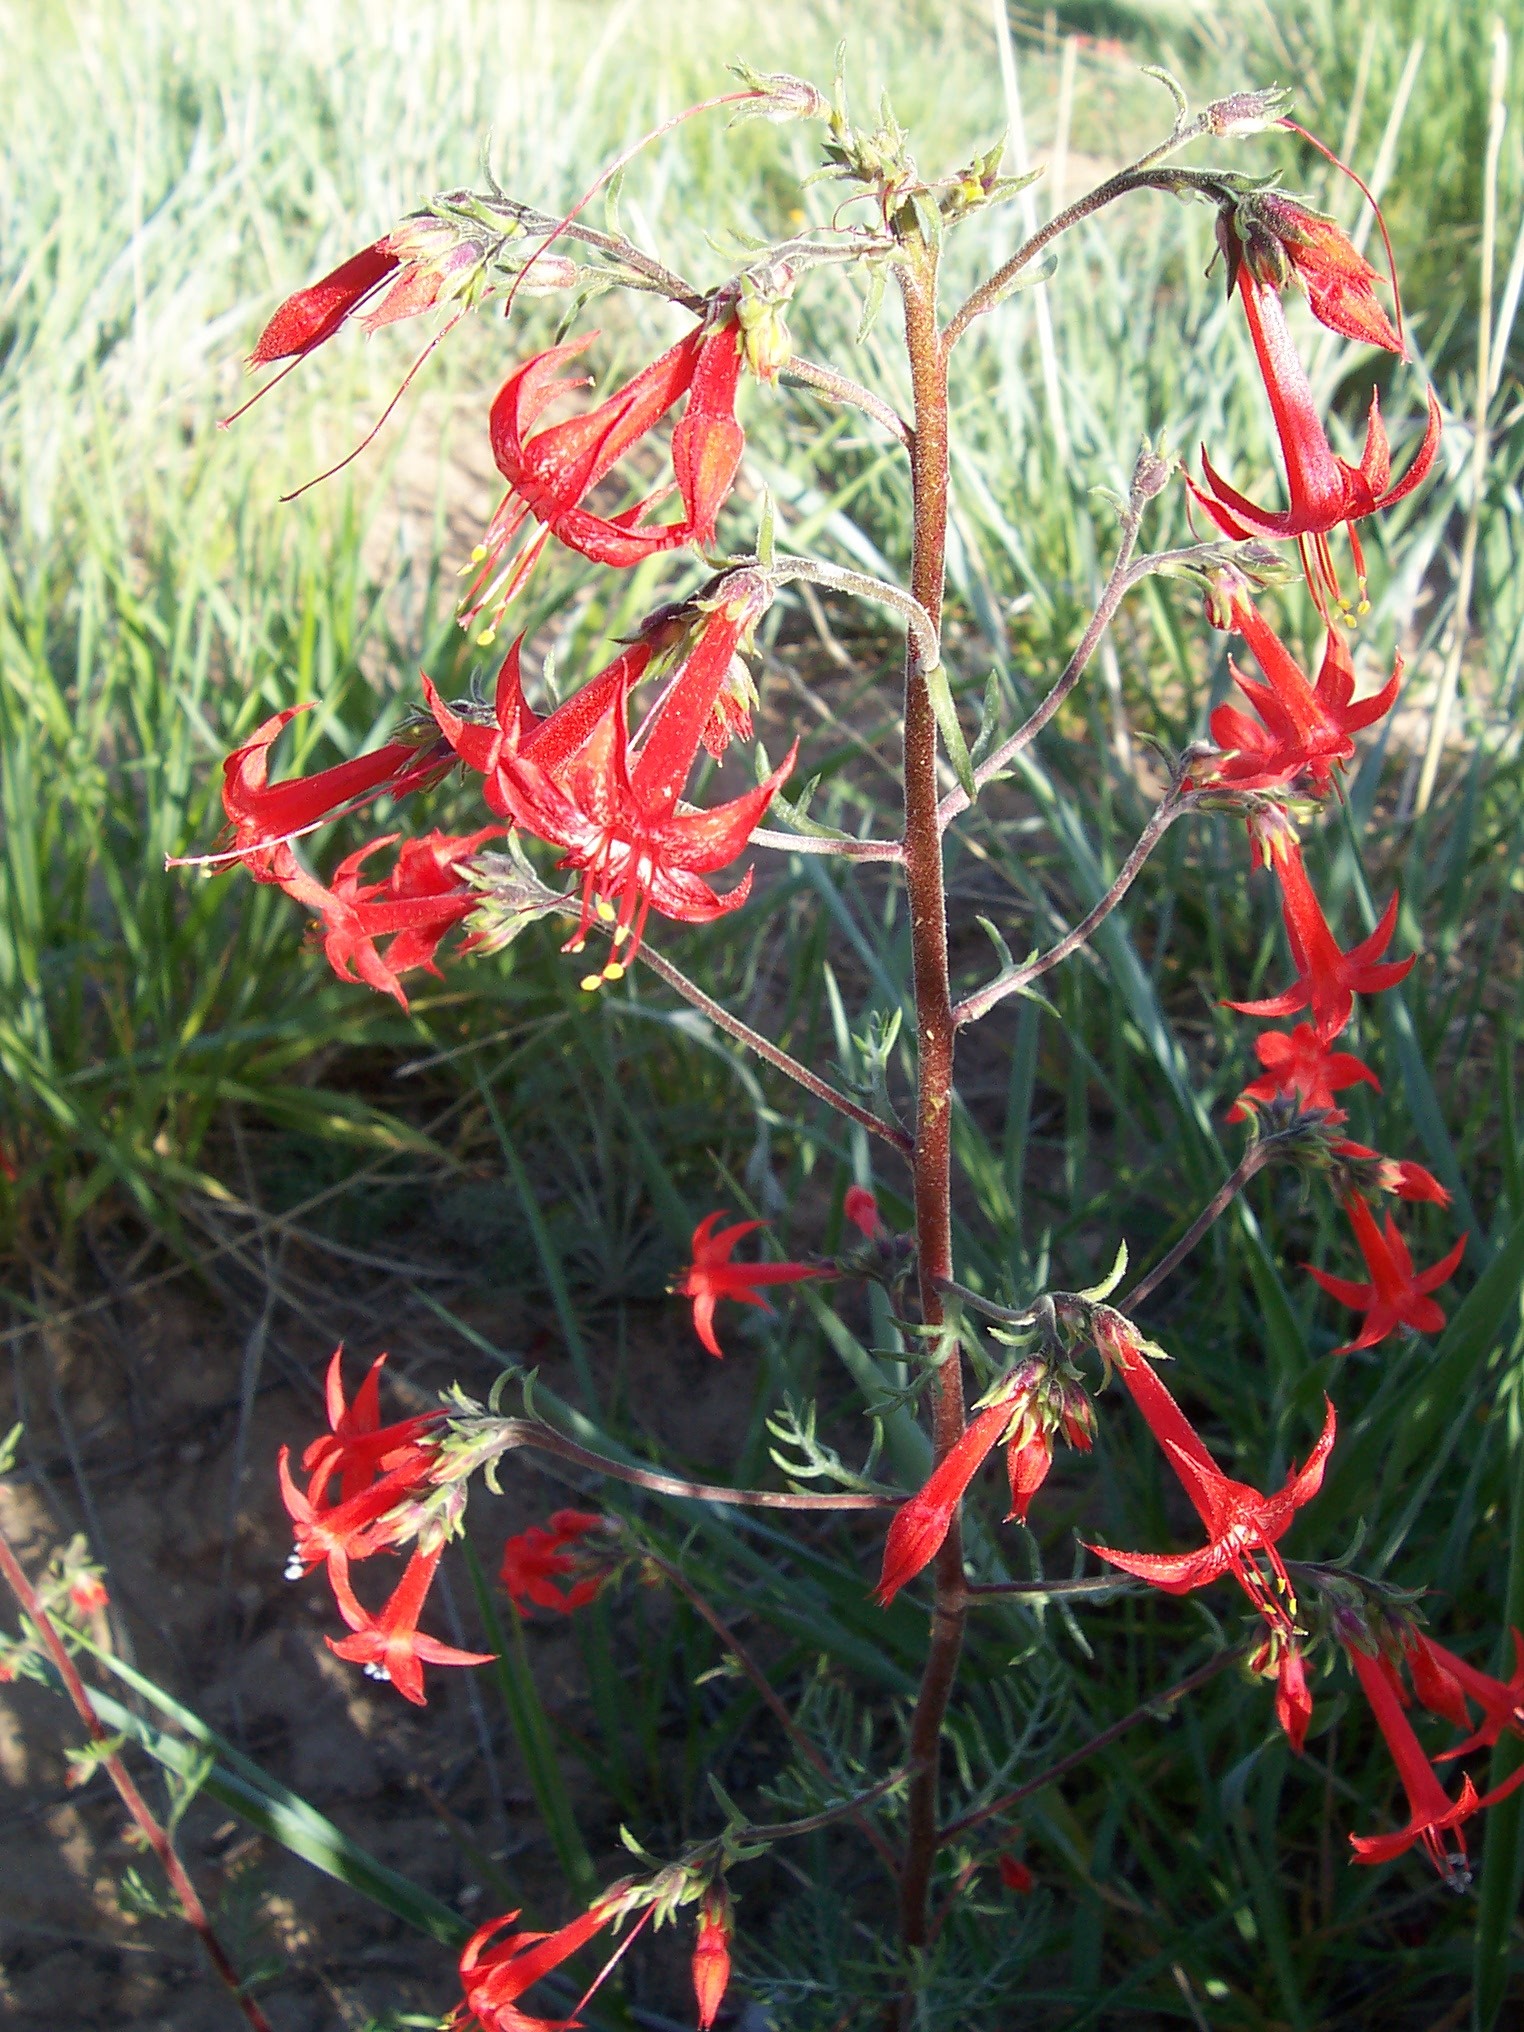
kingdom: Plantae
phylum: Tracheophyta
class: Magnoliopsida
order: Ericales
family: Polemoniaceae
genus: Ipomopsis
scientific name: Ipomopsis aggregata
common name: Scarlet gilia
